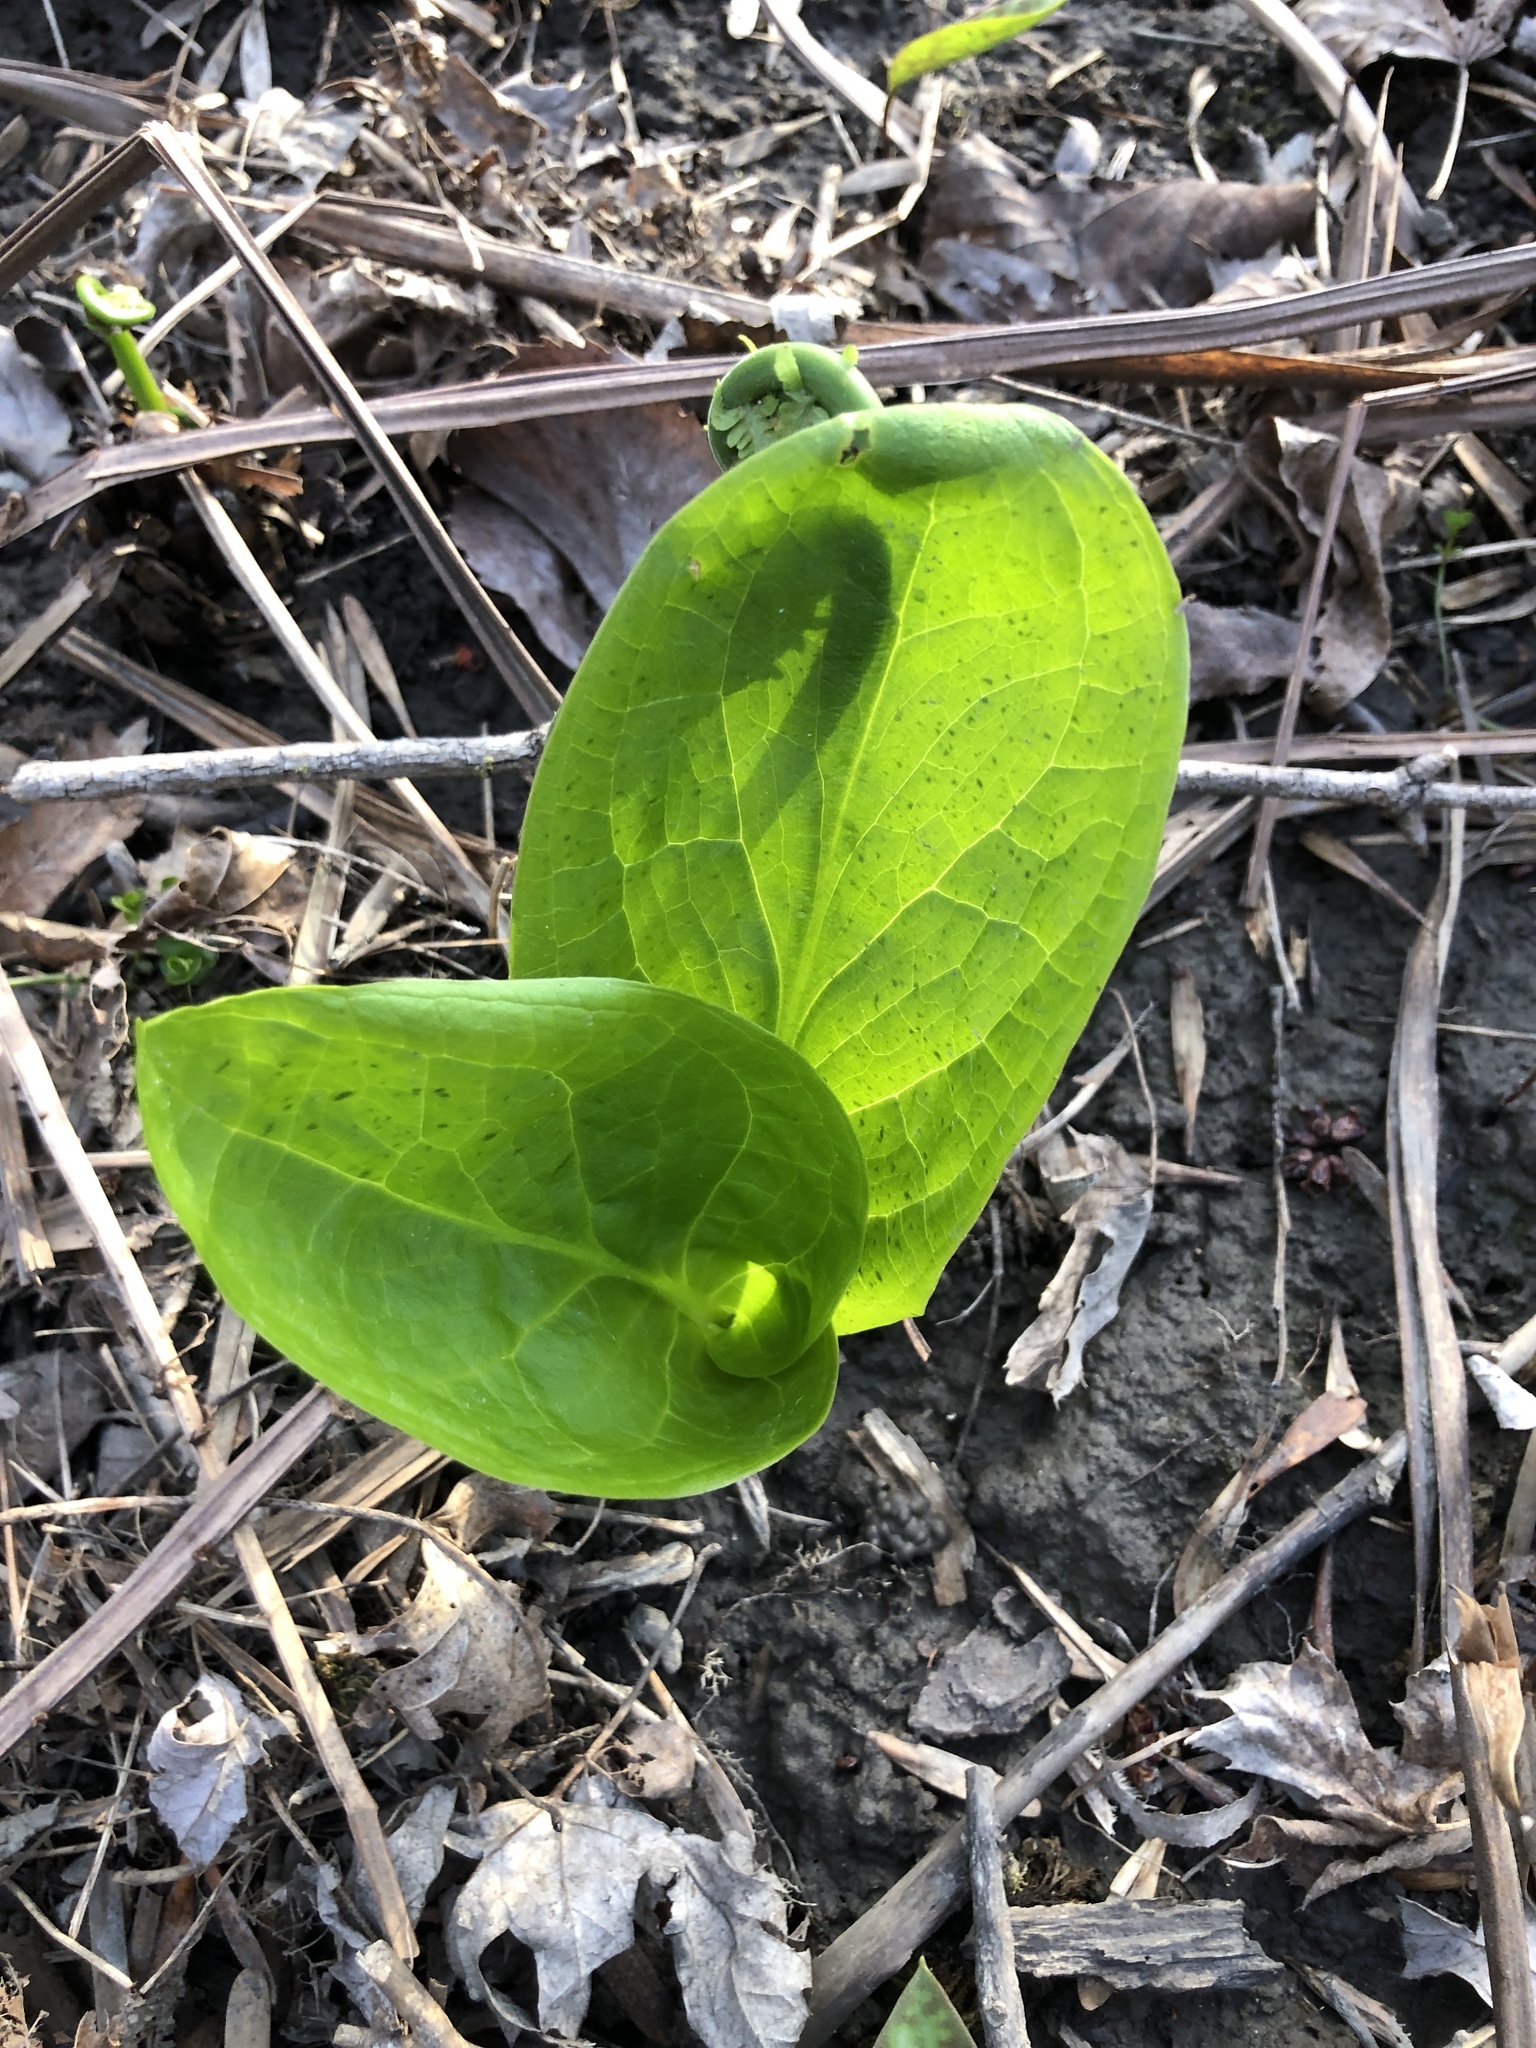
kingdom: Plantae
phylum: Tracheophyta
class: Liliopsida
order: Alismatales
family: Araceae
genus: Symplocarpus
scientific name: Symplocarpus foetidus
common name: Eastern skunk cabbage
